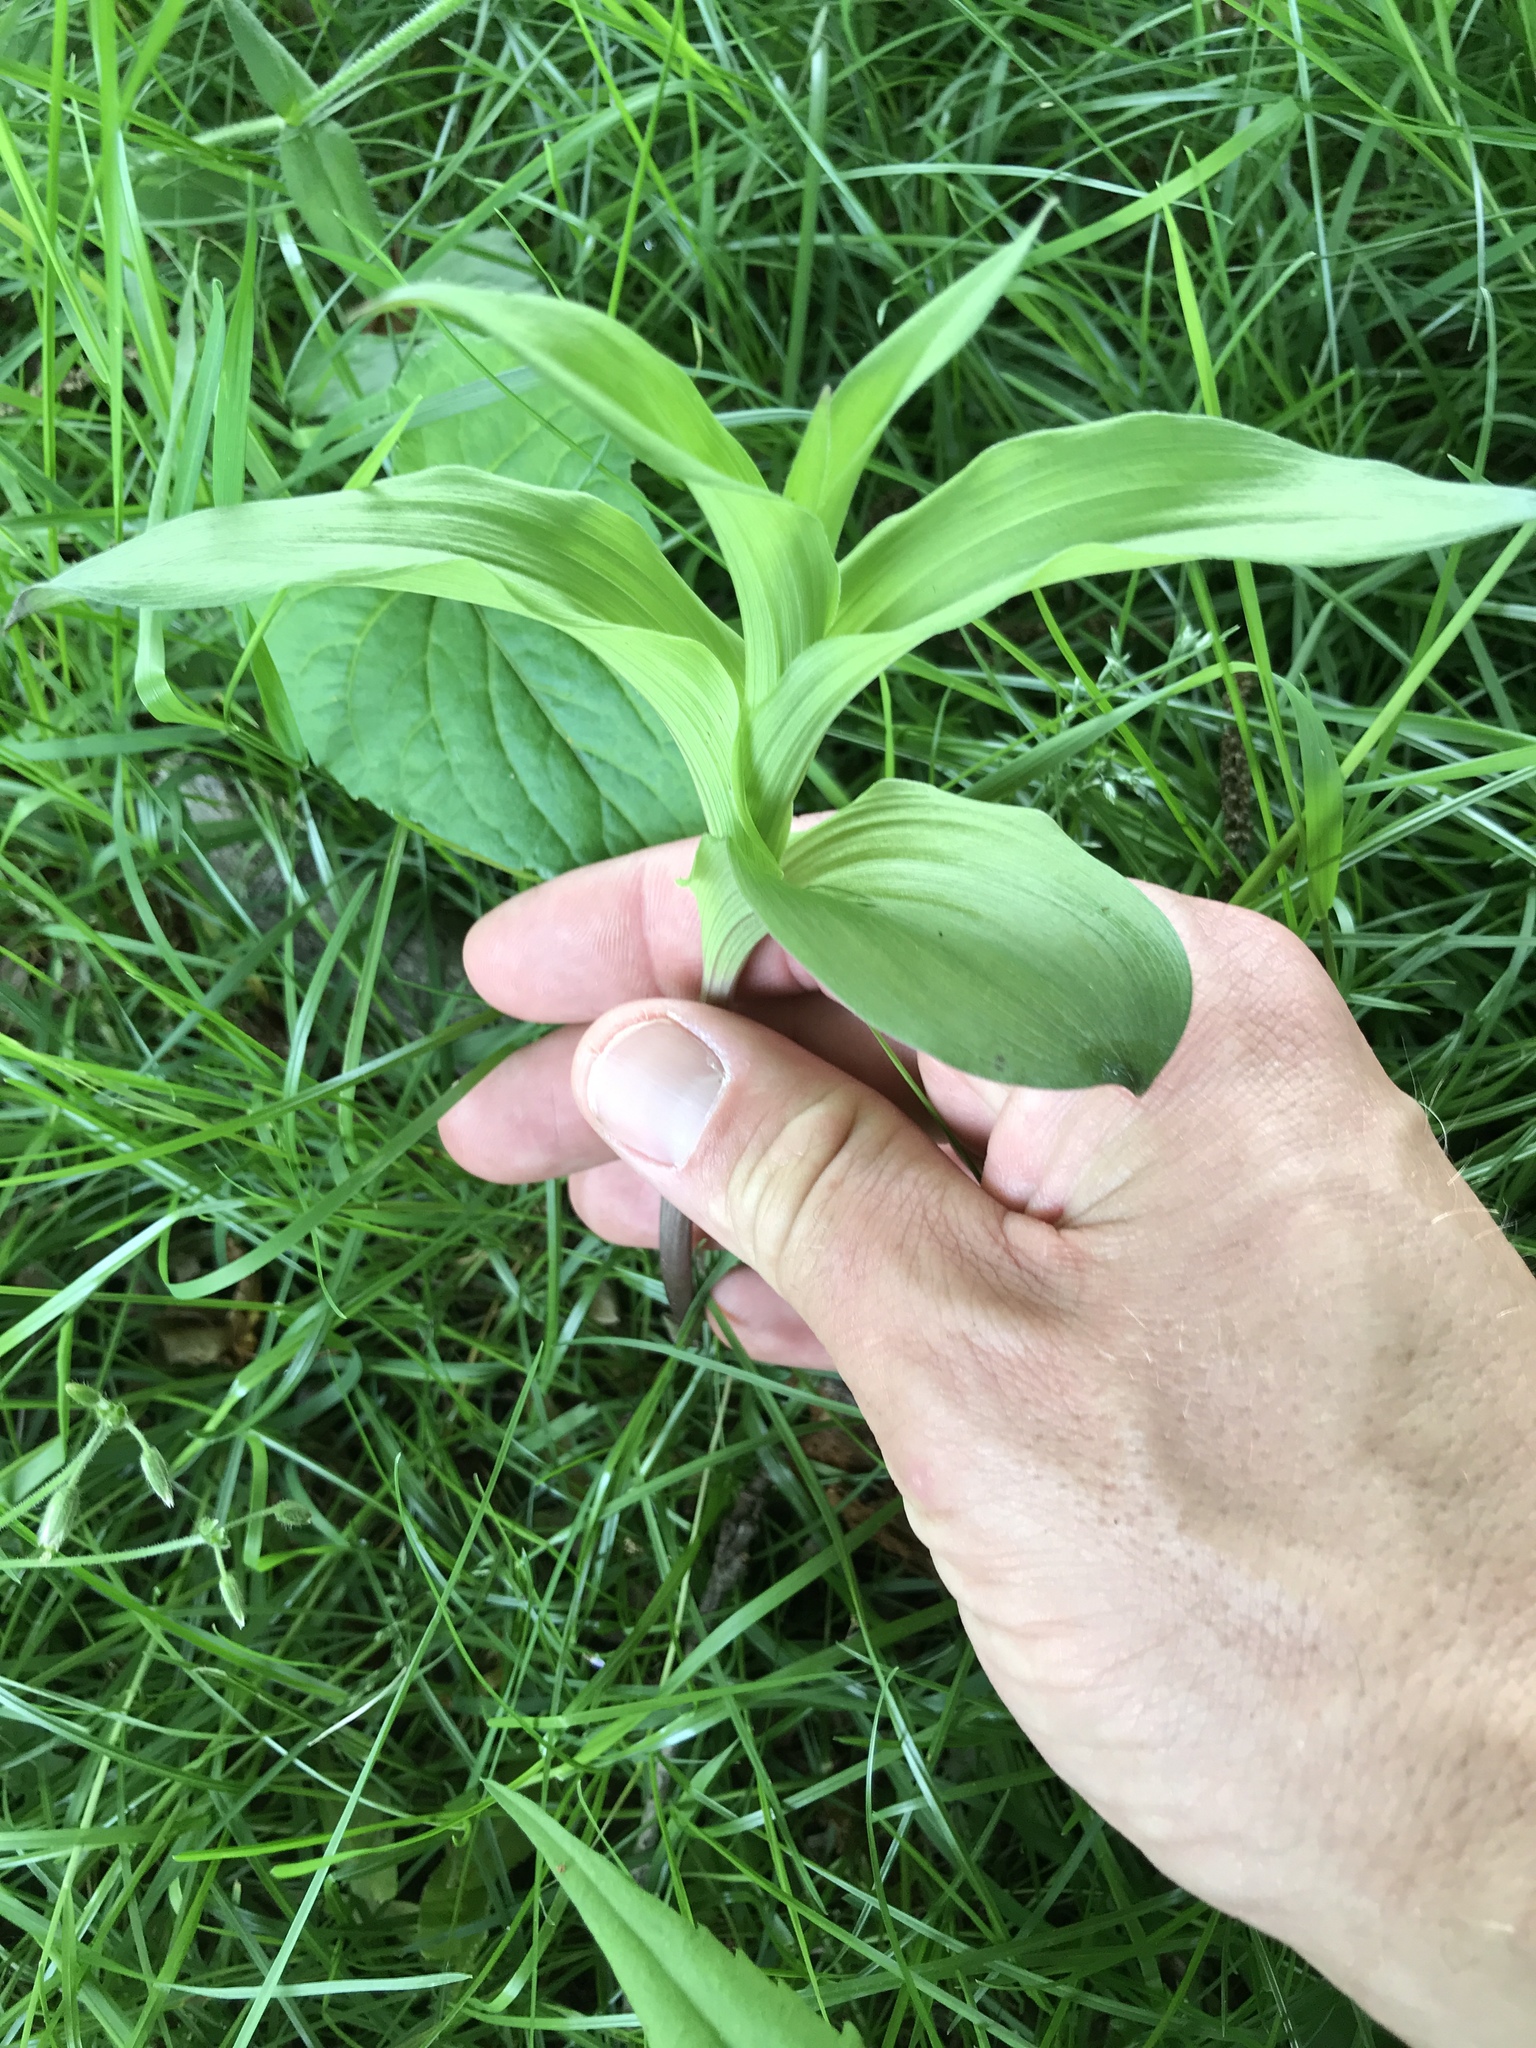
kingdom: Plantae
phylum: Tracheophyta
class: Liliopsida
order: Asparagales
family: Orchidaceae
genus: Epipactis
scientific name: Epipactis helleborine
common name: Broad-leaved helleborine
